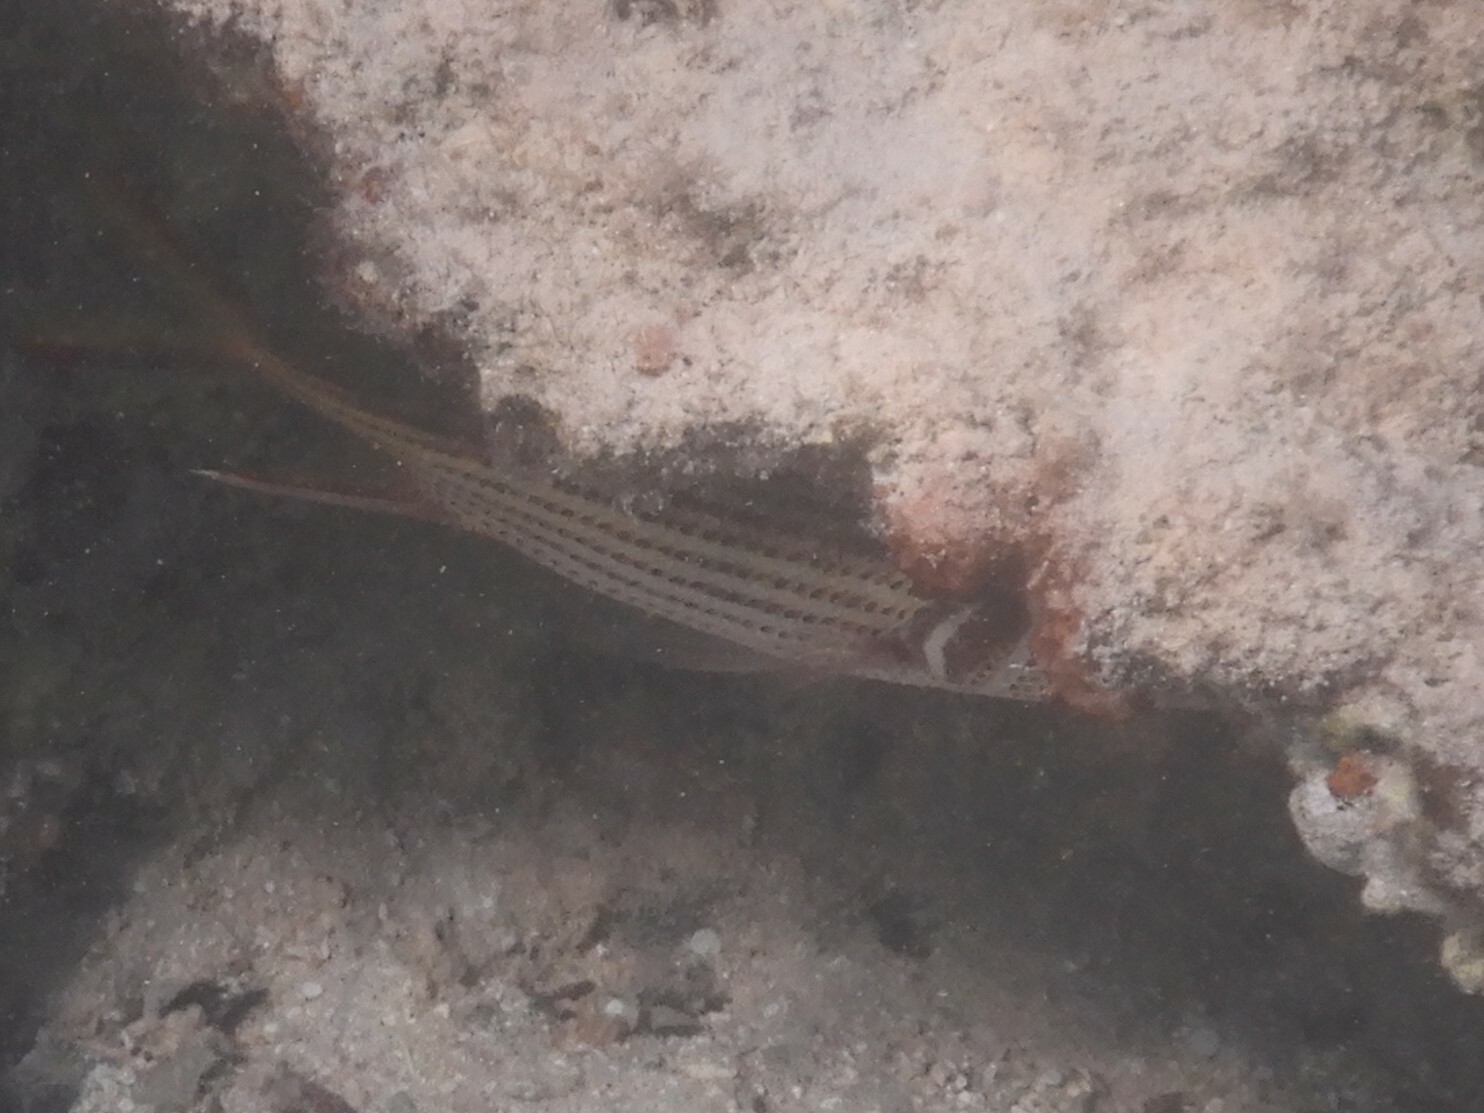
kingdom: Animalia
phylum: Chordata
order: Beryciformes
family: Holocentridae
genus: Neoniphon
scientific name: Neoniphon sammara
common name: Sammara squirrelfish
